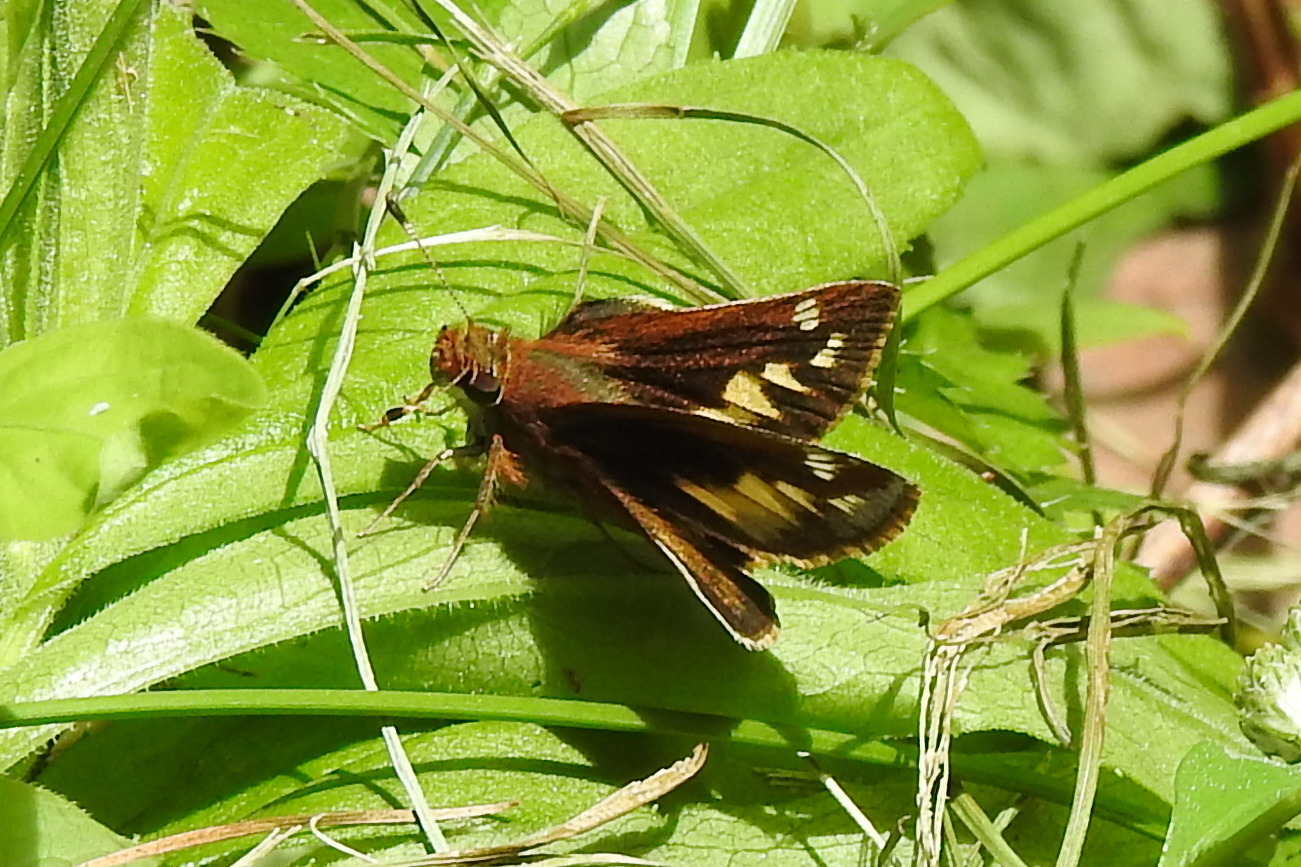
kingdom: Animalia
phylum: Arthropoda
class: Insecta
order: Lepidoptera
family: Hesperiidae
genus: Lon
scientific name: Lon zabulon
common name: Zabulon skipper
